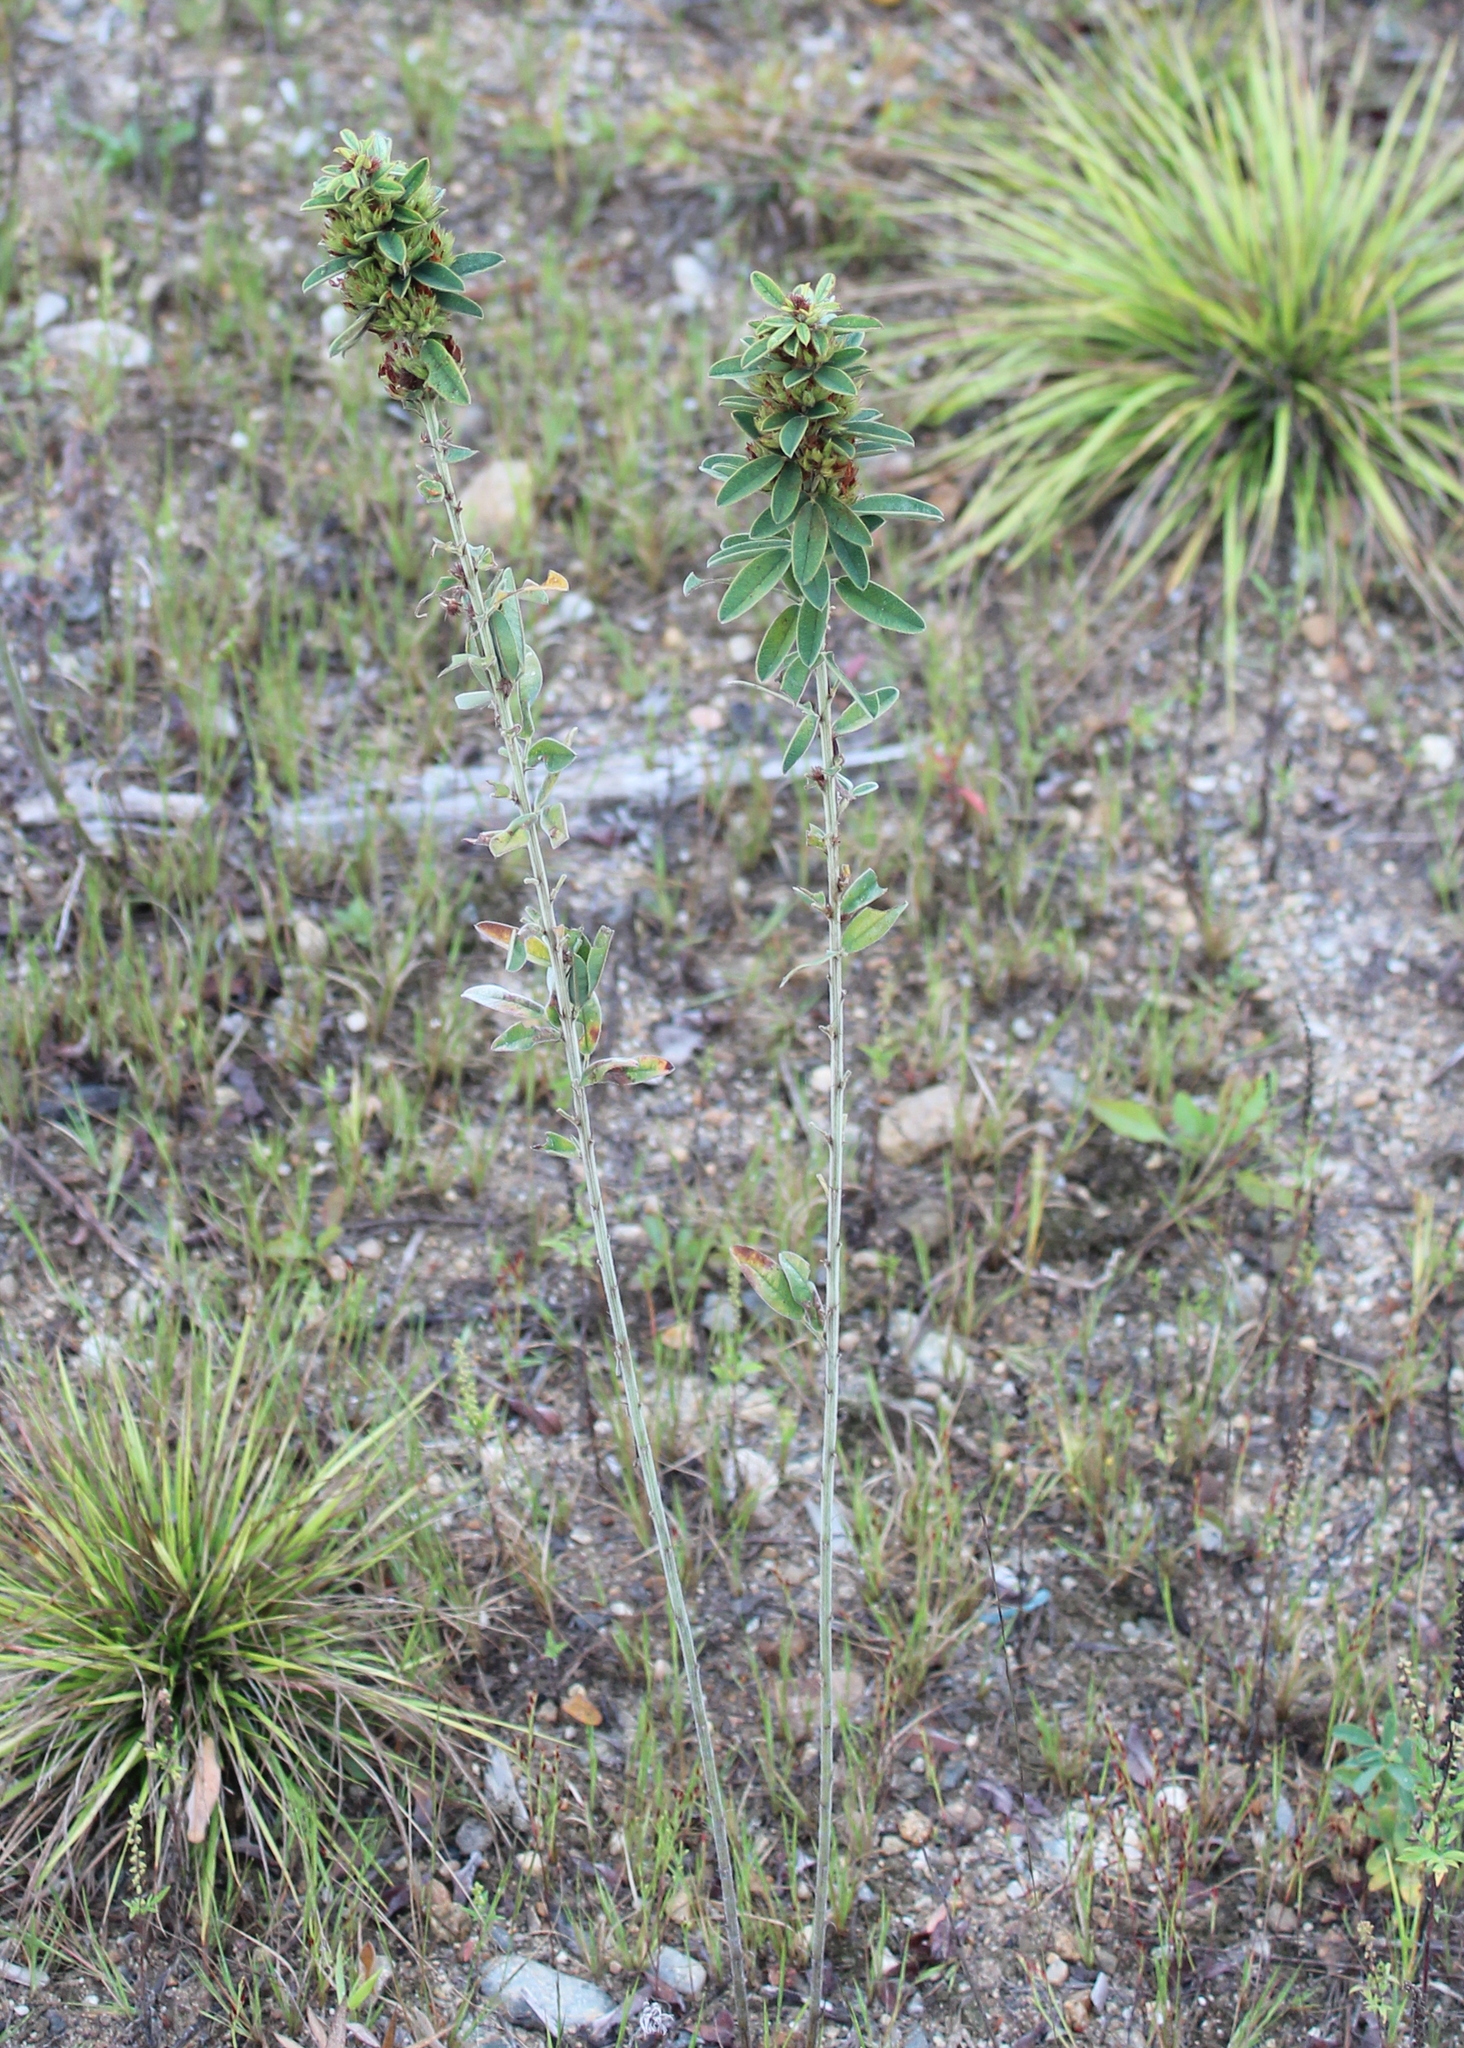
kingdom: Plantae
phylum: Tracheophyta
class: Magnoliopsida
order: Fabales
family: Fabaceae
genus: Lespedeza
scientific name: Lespedeza capitata
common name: Dusty clover
